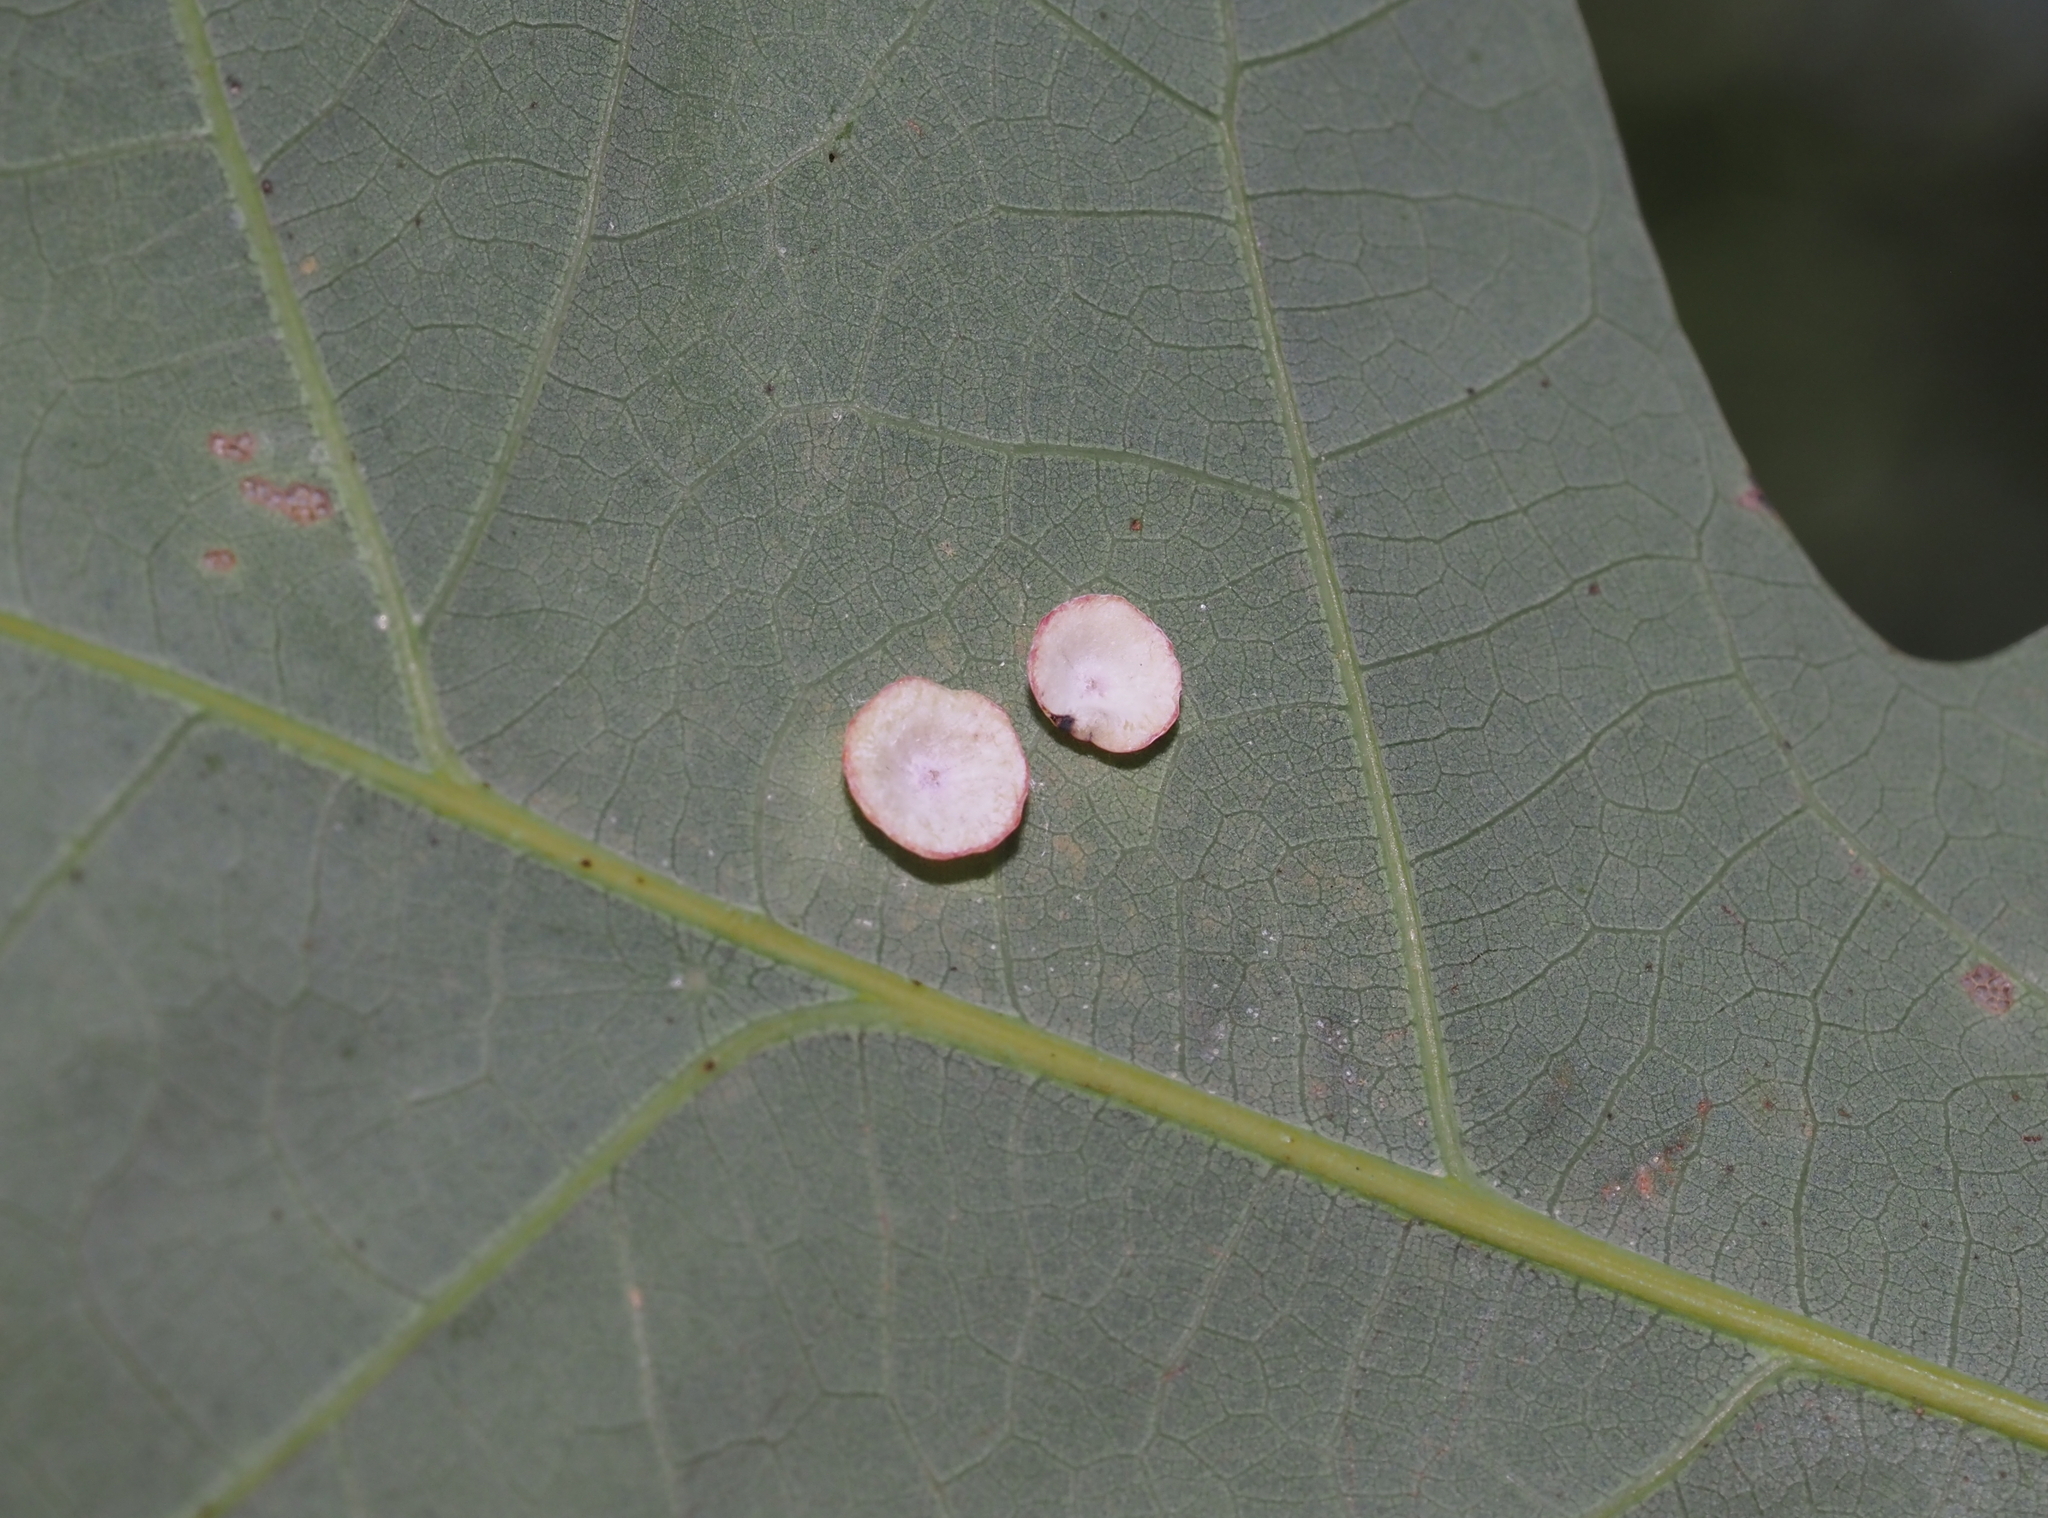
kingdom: Animalia
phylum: Arthropoda
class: Insecta
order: Hymenoptera
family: Cynipidae
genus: Phylloteras
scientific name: Phylloteras poculum
